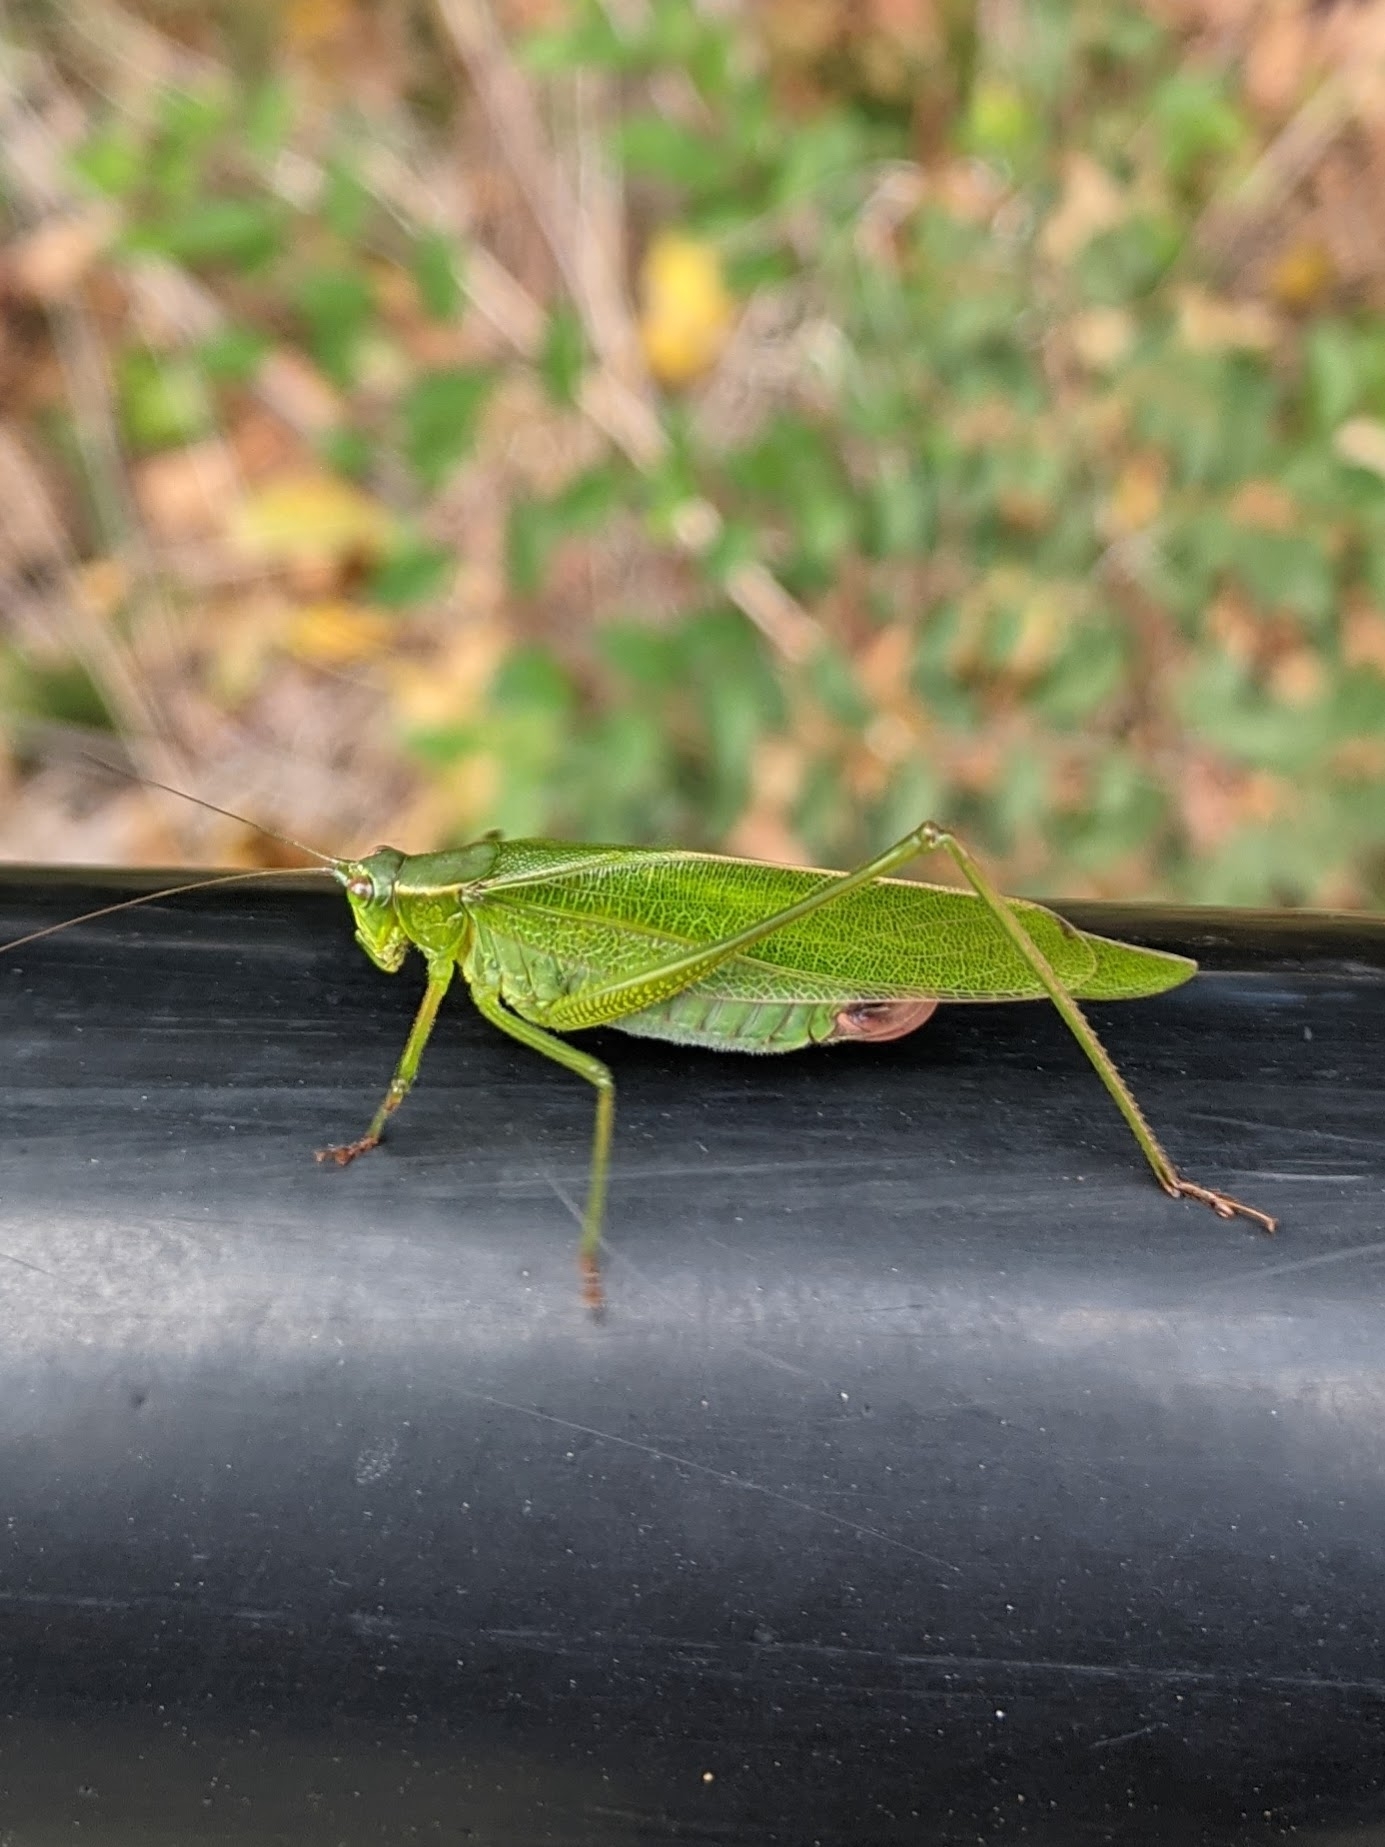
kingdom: Animalia
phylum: Arthropoda
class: Insecta
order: Orthoptera
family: Tettigoniidae
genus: Scudderia
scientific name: Scudderia furcata
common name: Fork-tailed bush katydid
